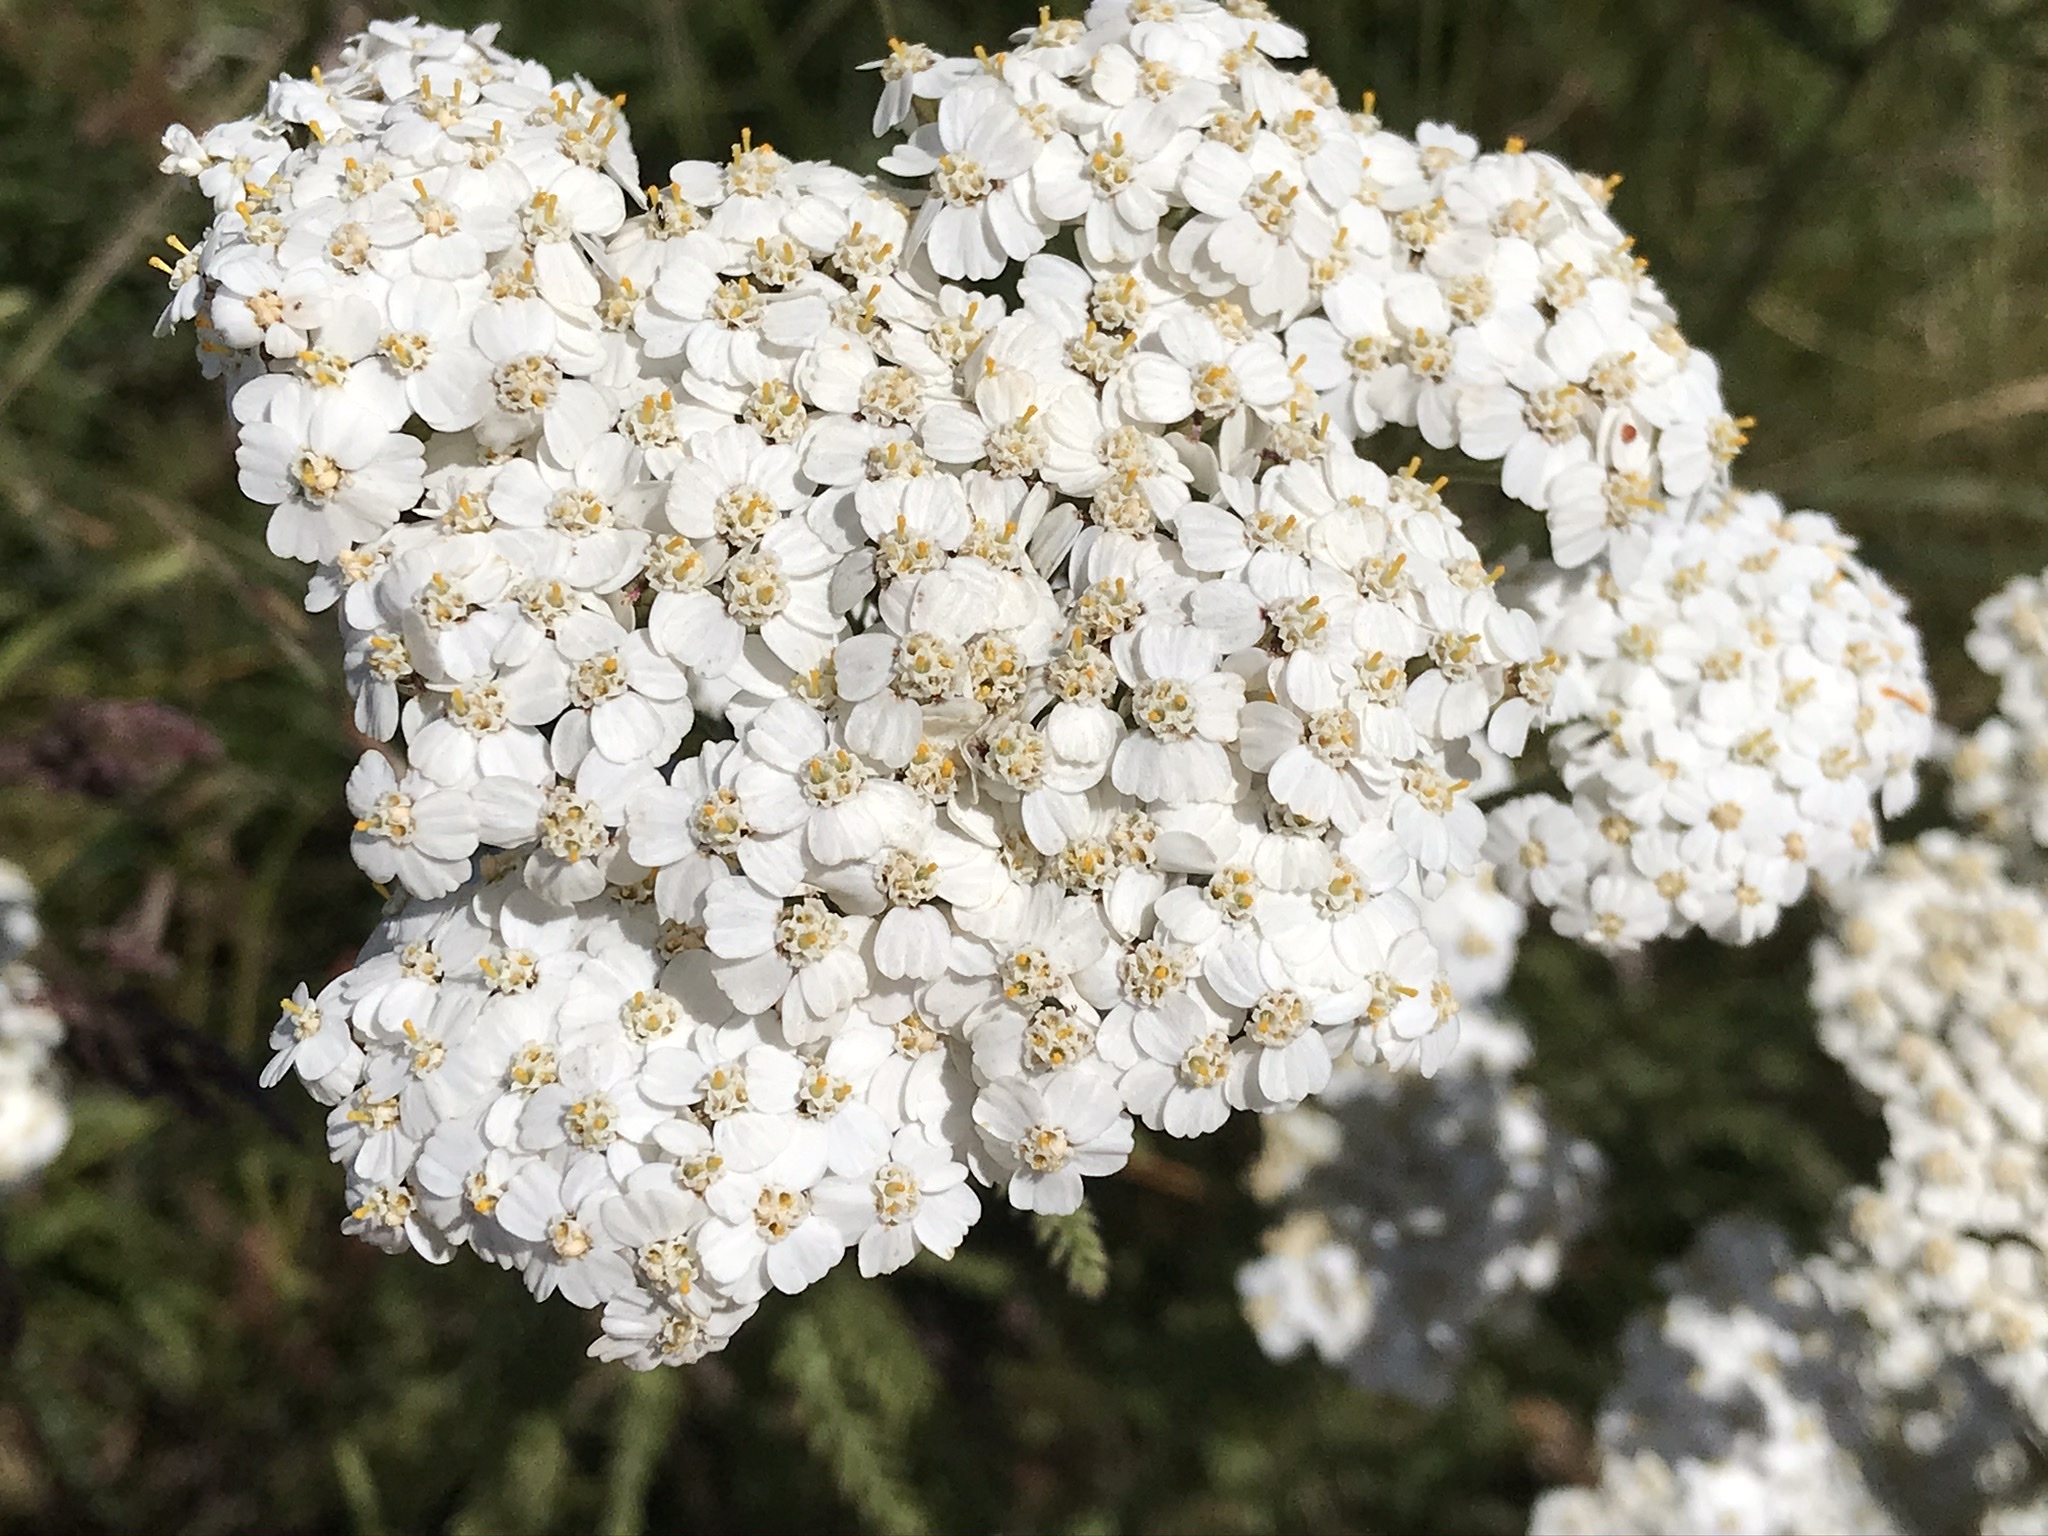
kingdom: Plantae
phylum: Tracheophyta
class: Magnoliopsida
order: Asterales
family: Asteraceae
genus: Achillea
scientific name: Achillea millefolium
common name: Yarrow
